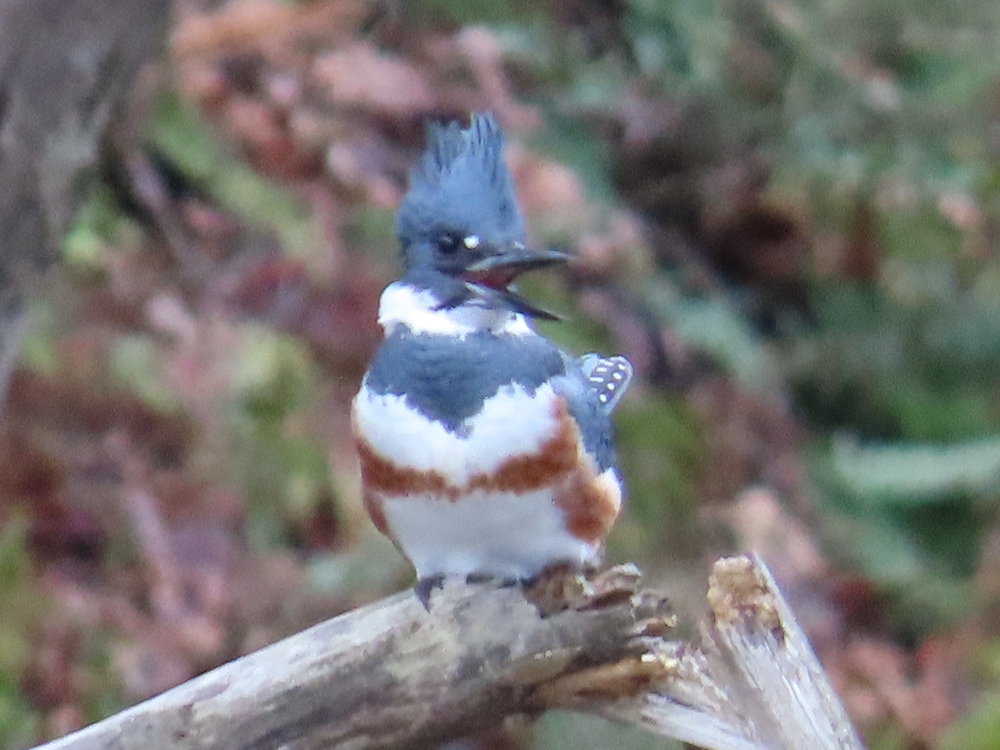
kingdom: Animalia
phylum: Chordata
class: Aves
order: Coraciiformes
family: Alcedinidae
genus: Megaceryle
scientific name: Megaceryle alcyon
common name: Belted kingfisher
